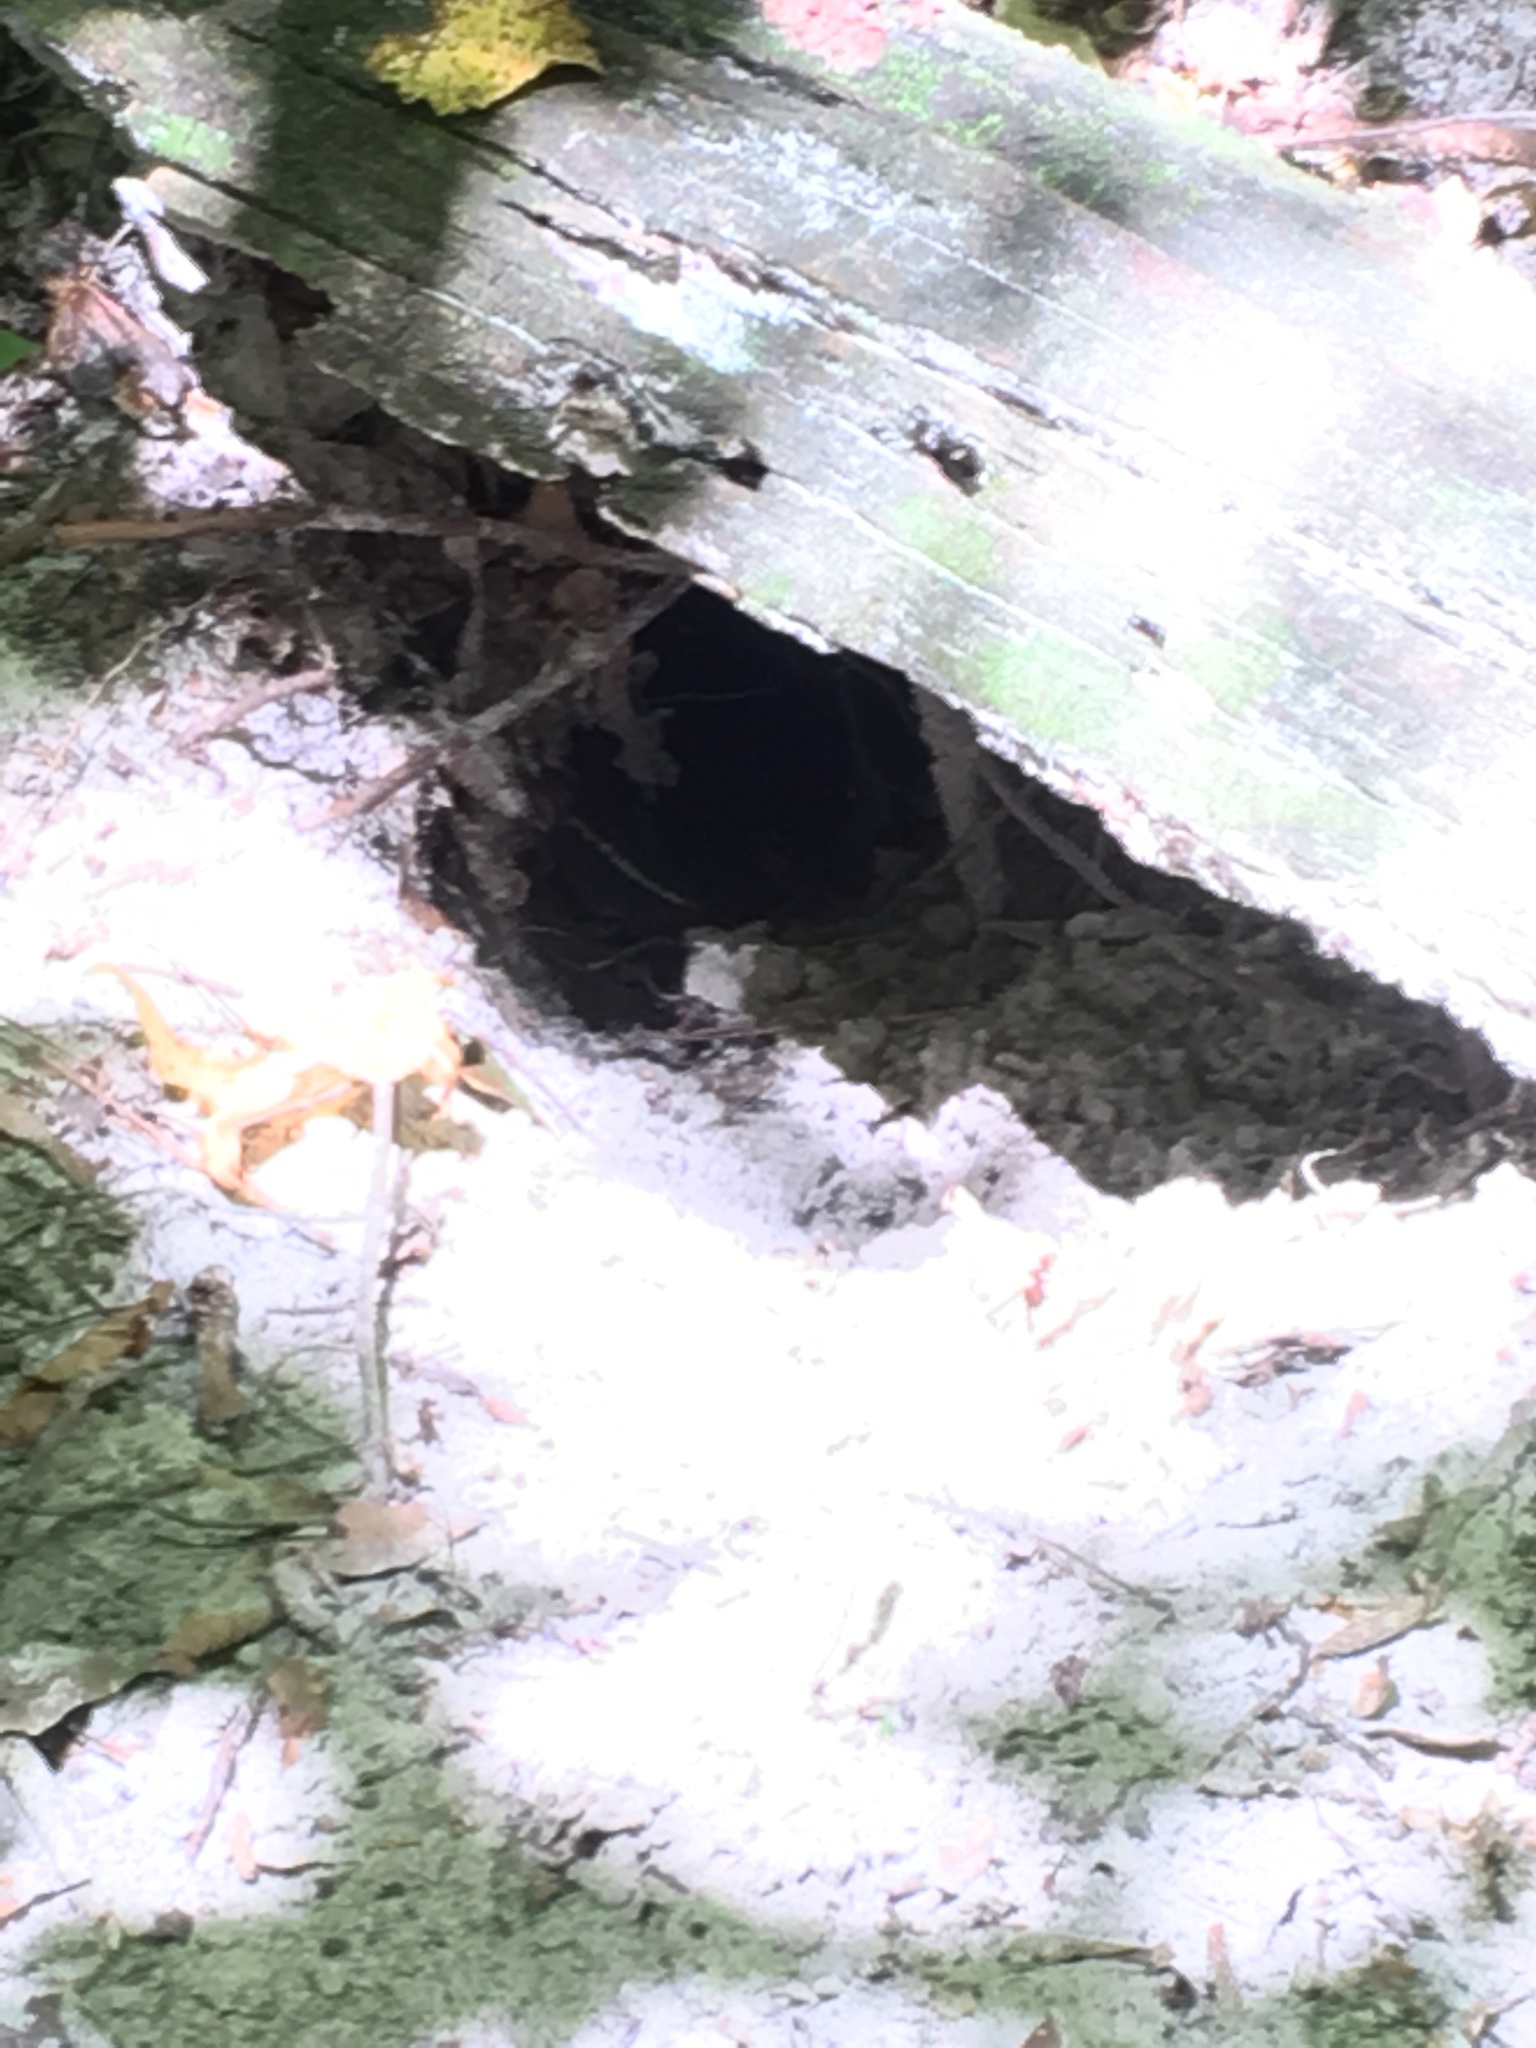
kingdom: Animalia
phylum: Chordata
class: Testudines
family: Testudinidae
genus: Gopherus
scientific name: Gopherus polyphemus
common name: Florida gopher tortoise
